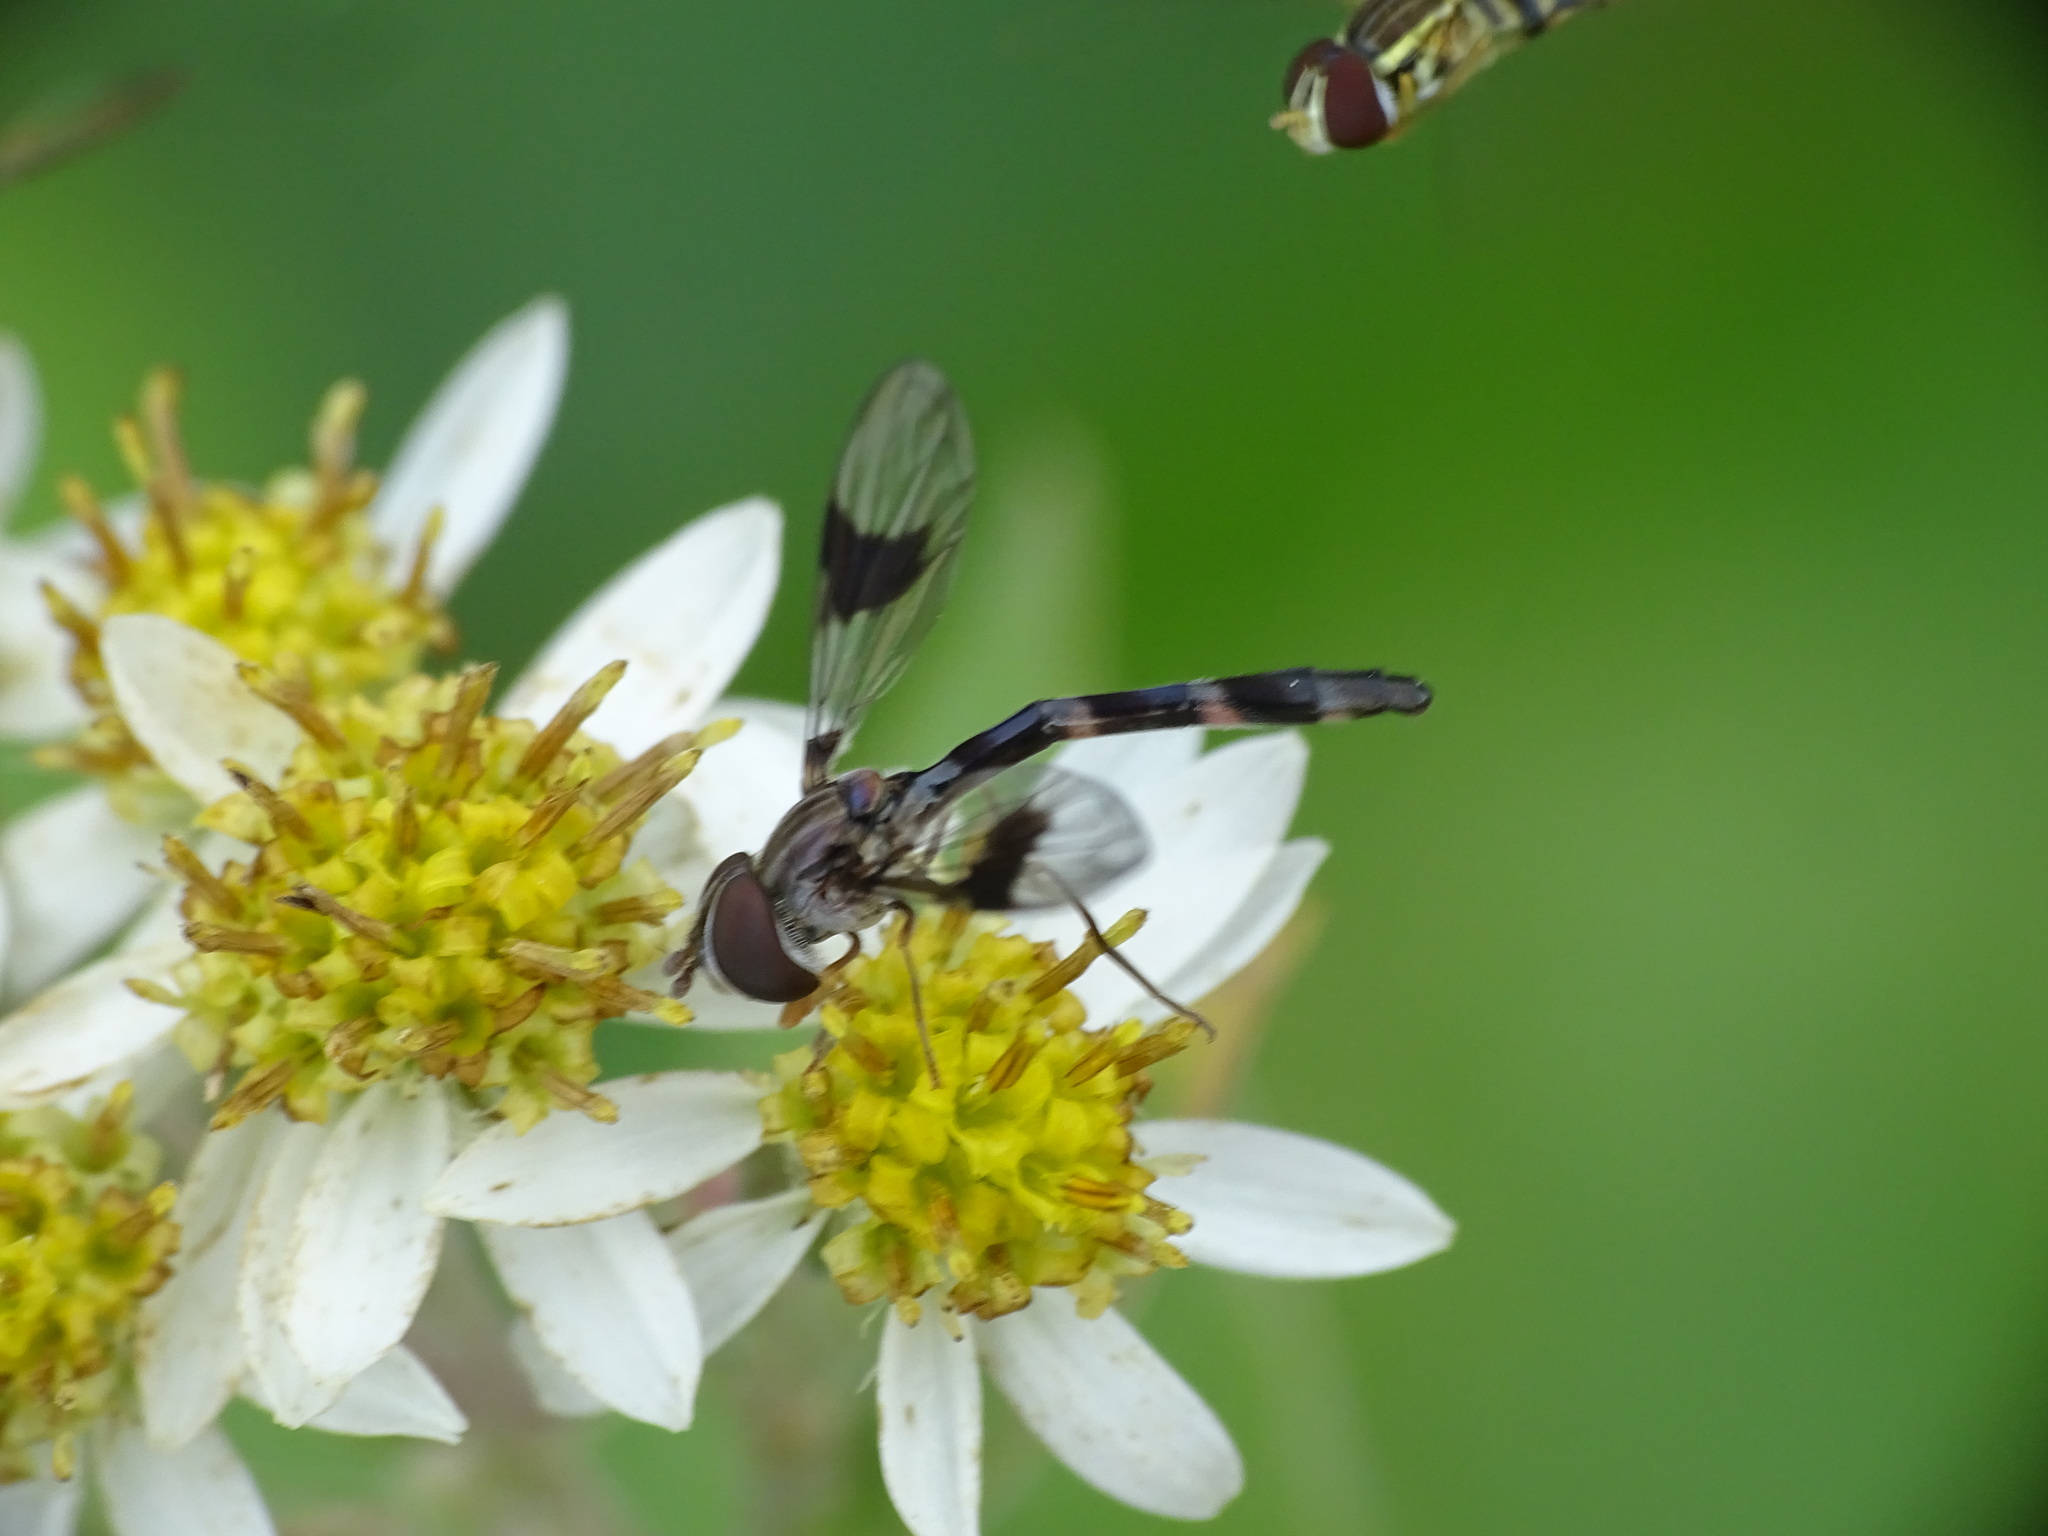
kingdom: Animalia
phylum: Arthropoda
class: Insecta
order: Diptera
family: Syrphidae
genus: Hypocritanus
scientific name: Hypocritanus fascipennis
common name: Eastern band-winged hover fly
